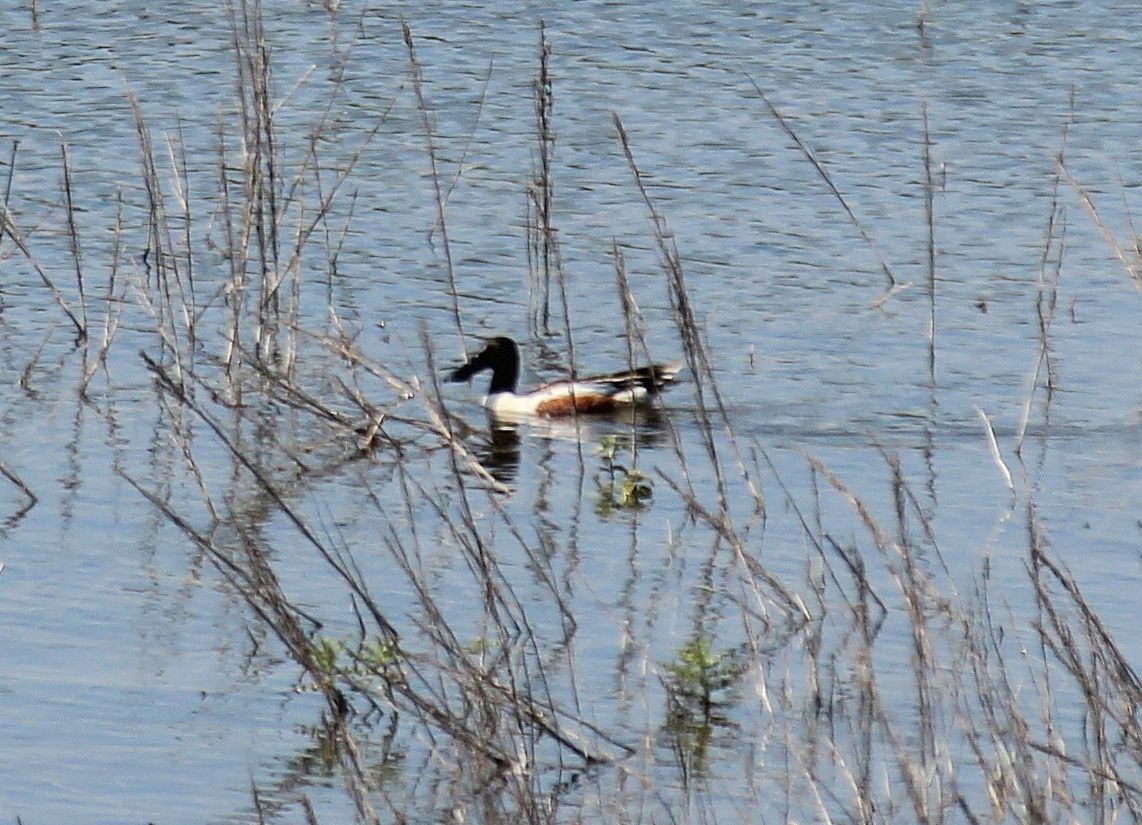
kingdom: Animalia
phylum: Chordata
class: Aves
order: Anseriformes
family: Anatidae
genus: Spatula
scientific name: Spatula clypeata
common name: Northern shoveler
